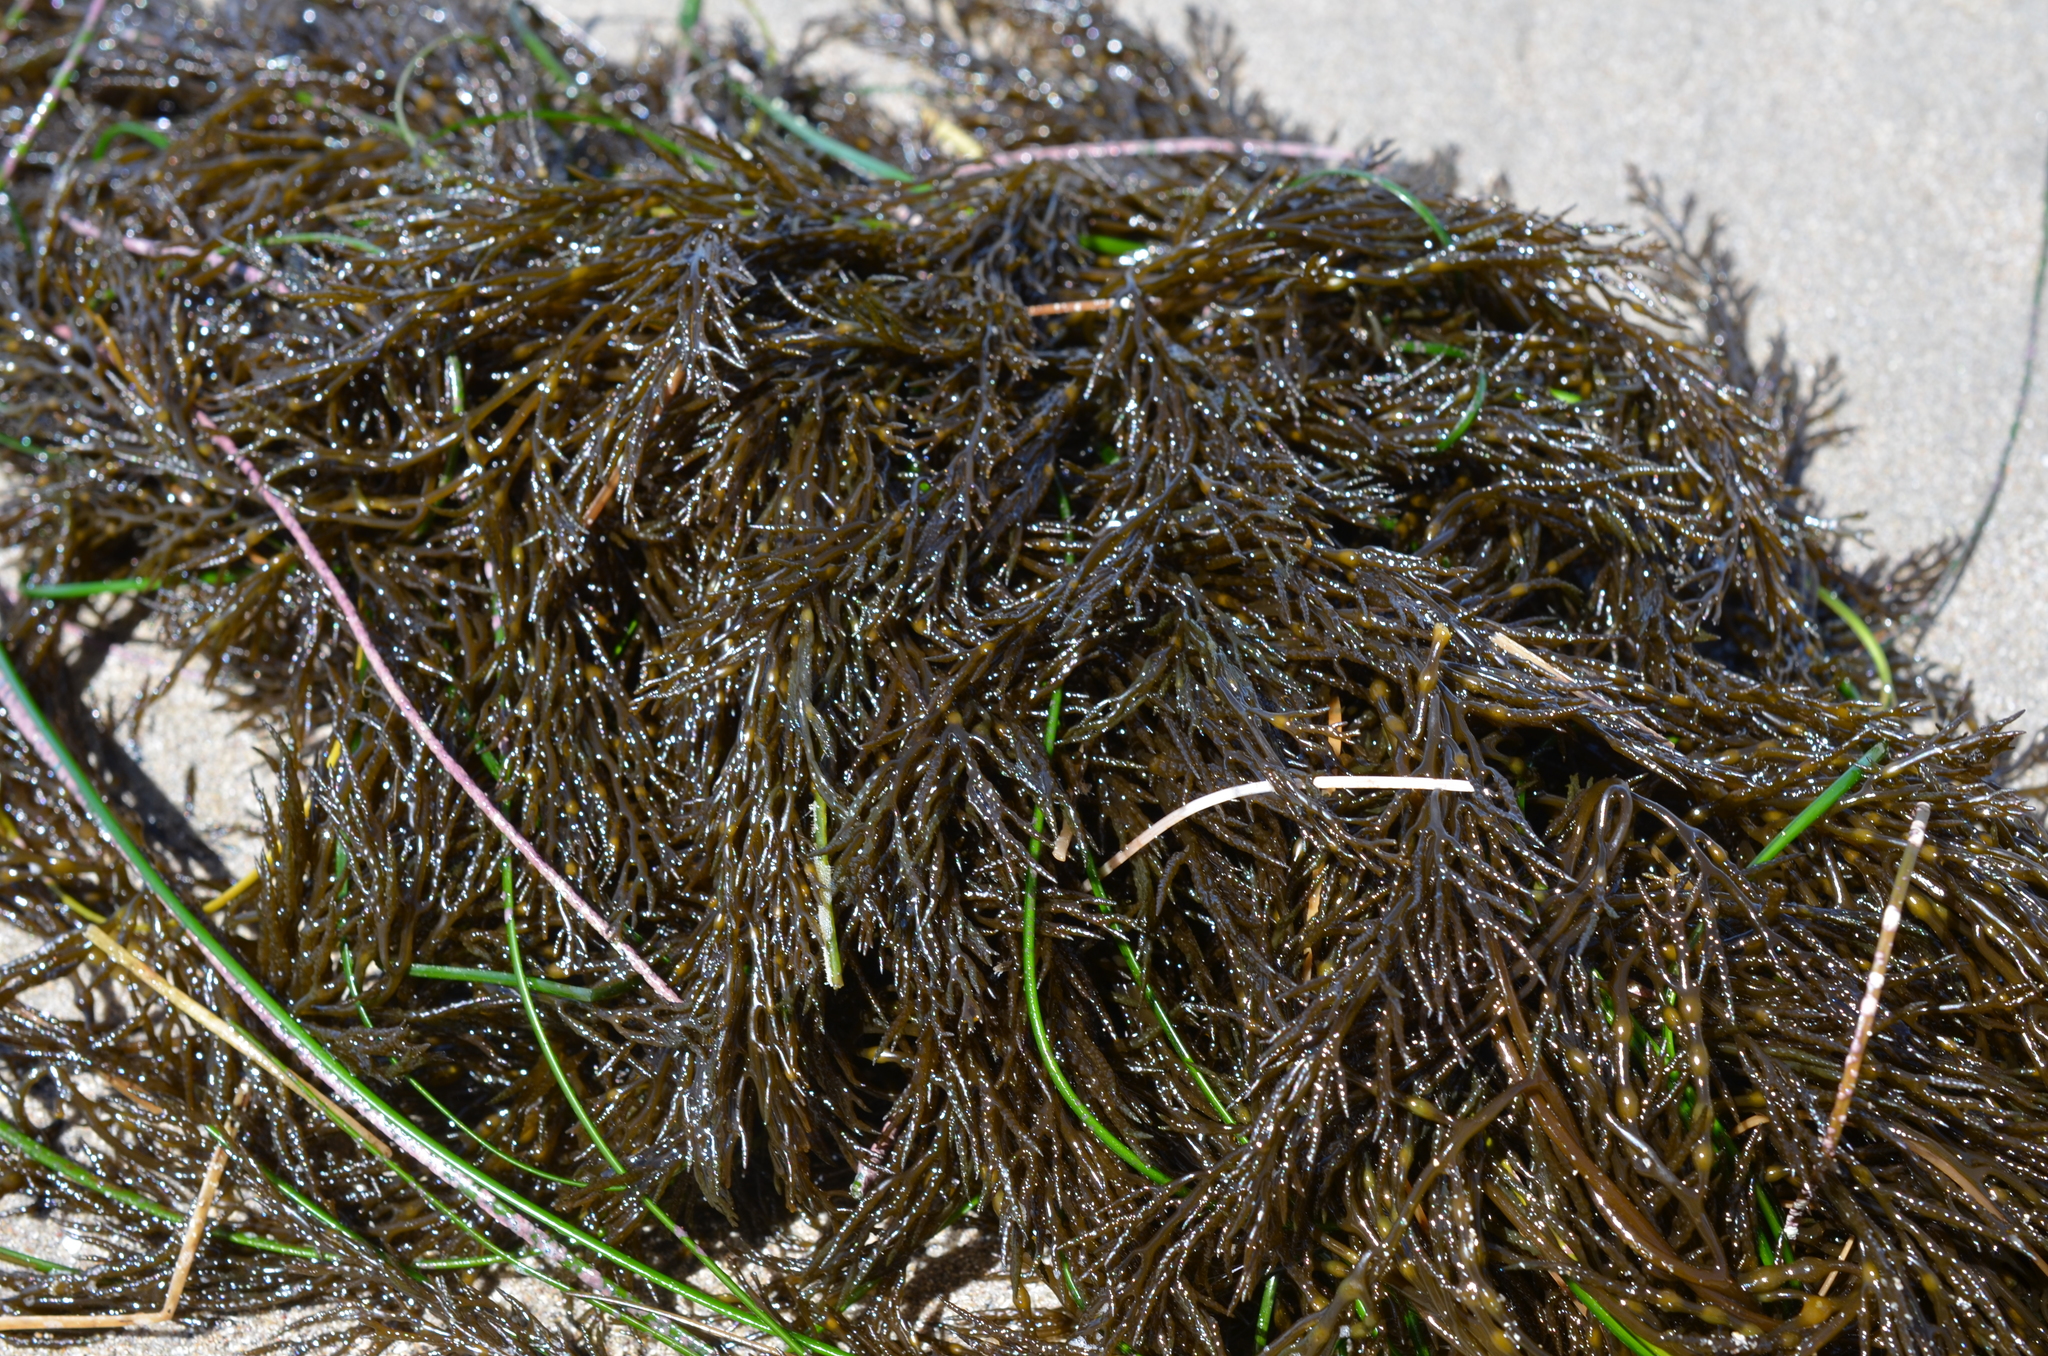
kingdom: Chromista
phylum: Ochrophyta
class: Phaeophyceae
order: Fucales
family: Sargassaceae
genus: Stephanocystis
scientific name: Stephanocystis
